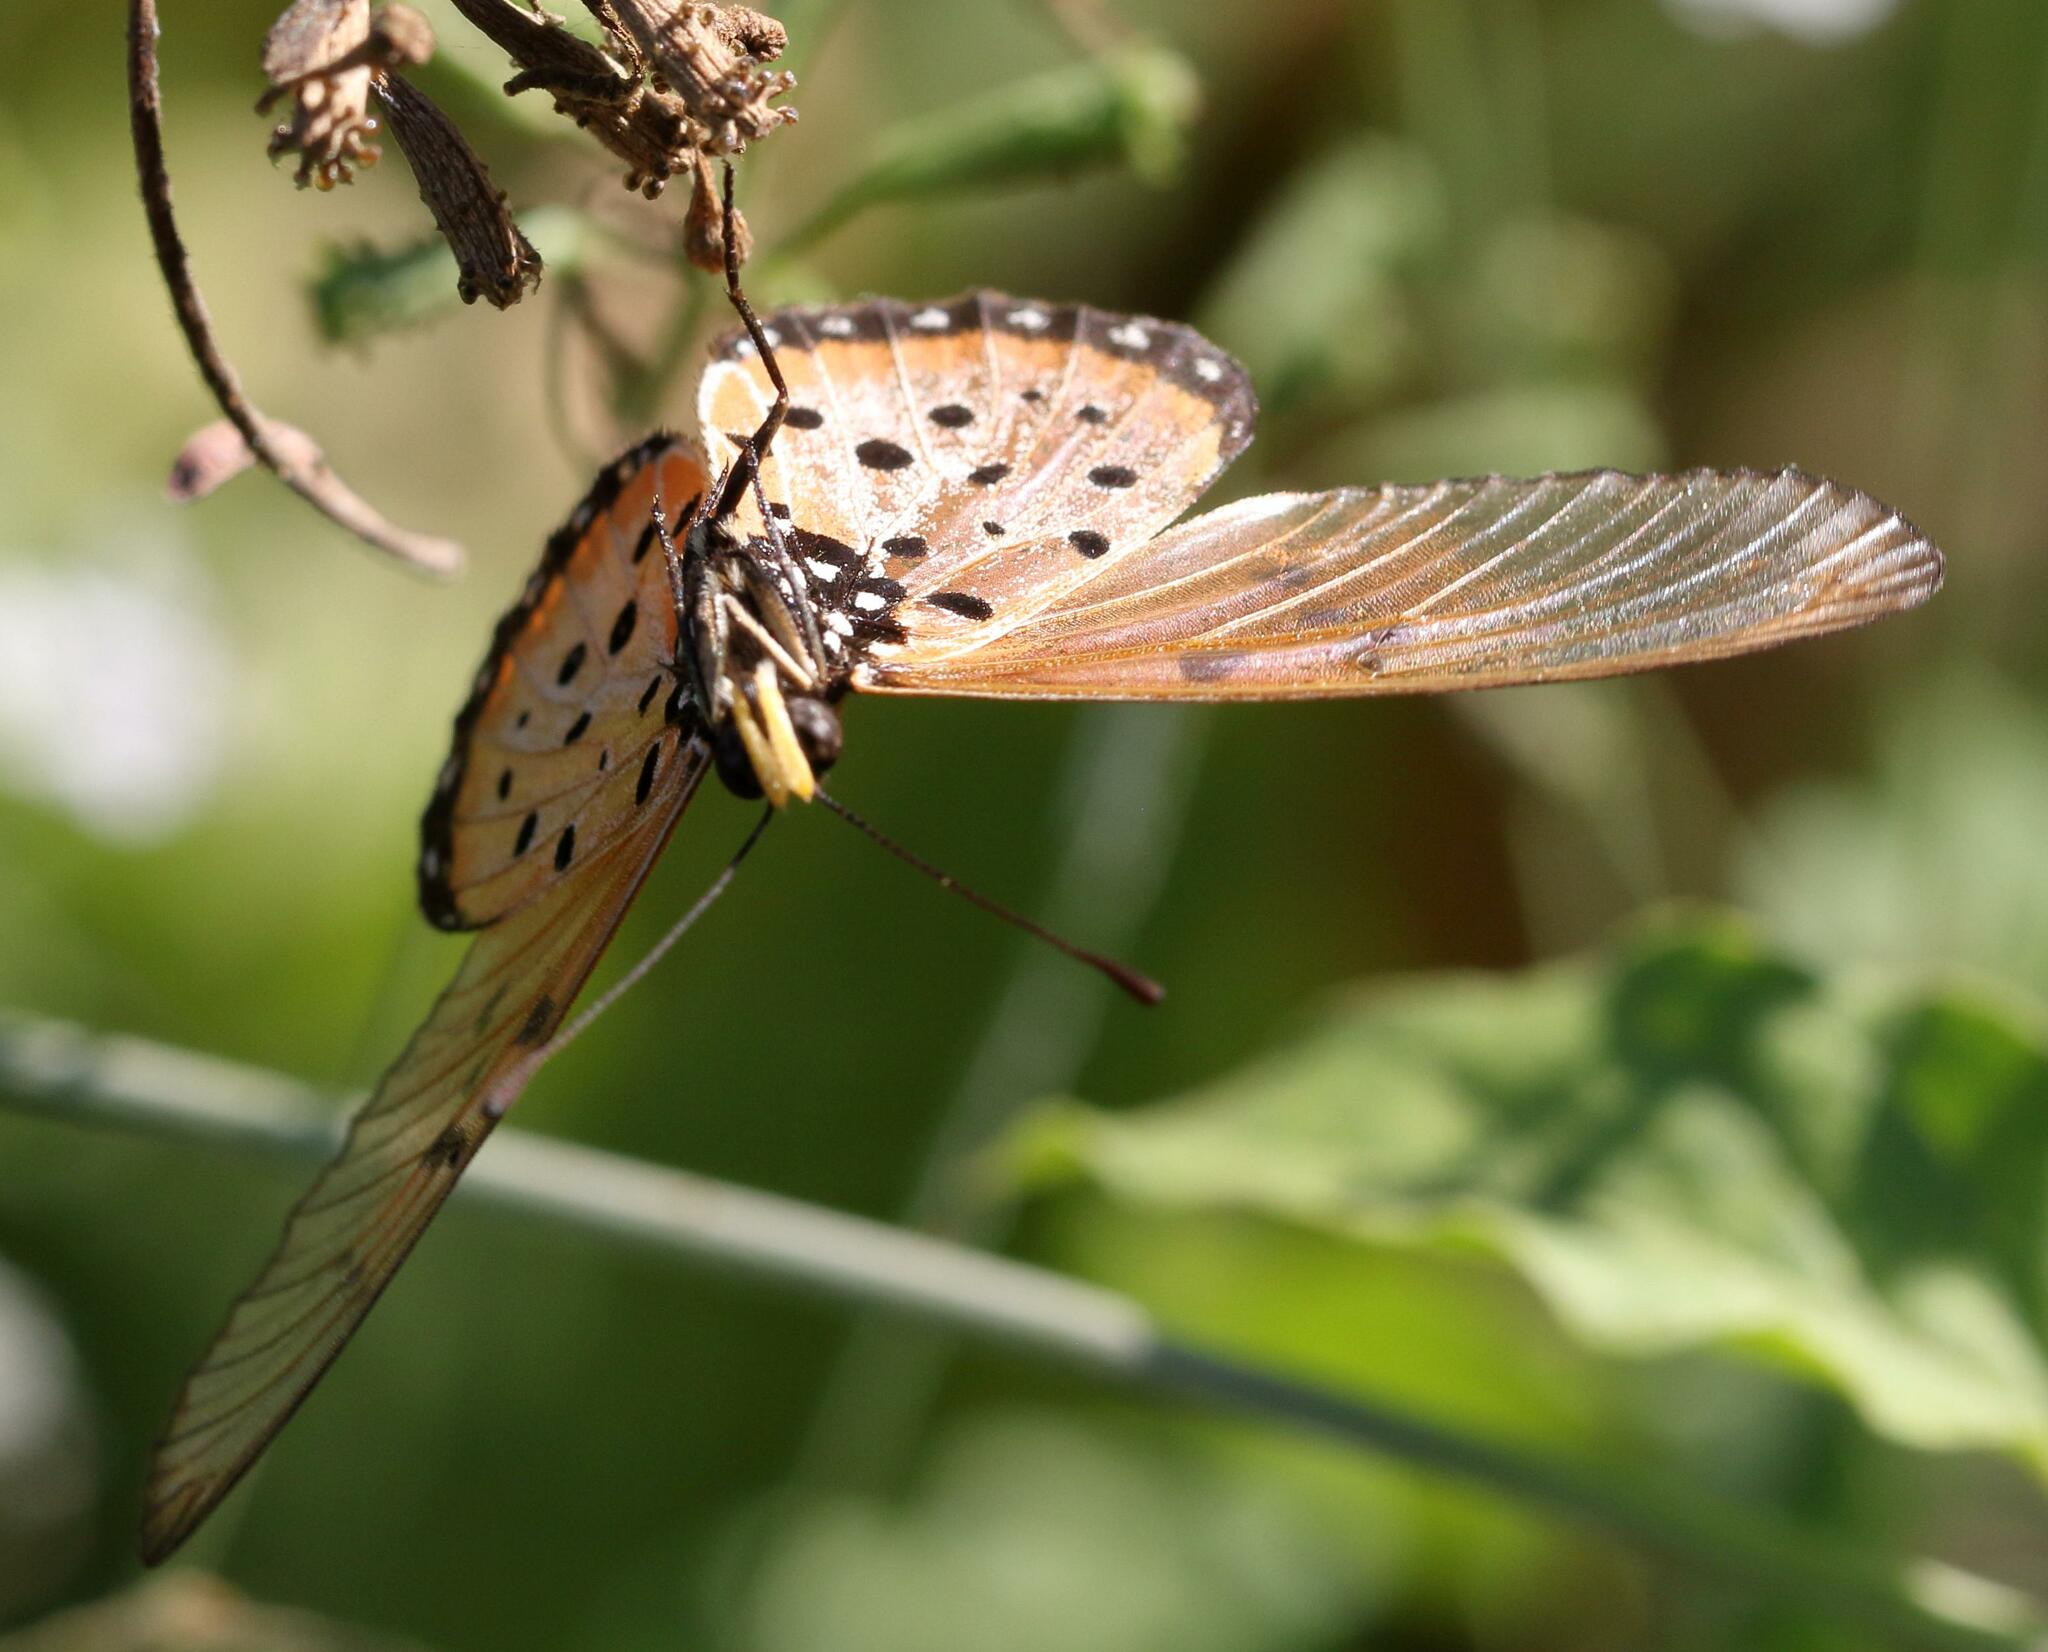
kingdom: Animalia
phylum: Arthropoda
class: Insecta
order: Lepidoptera
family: Nymphalidae
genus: Acraea
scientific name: Acraea neobule
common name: Dancing acraea
